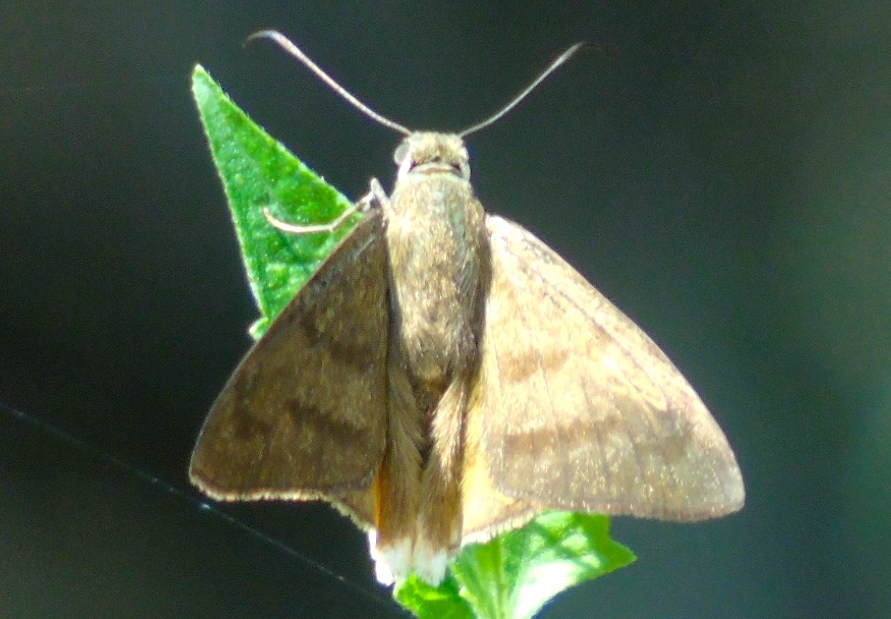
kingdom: Animalia
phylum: Arthropoda
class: Insecta
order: Lepidoptera
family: Hesperiidae
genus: Astraptes
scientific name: Astraptes anaphus
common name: Yellow-tipped flasher
